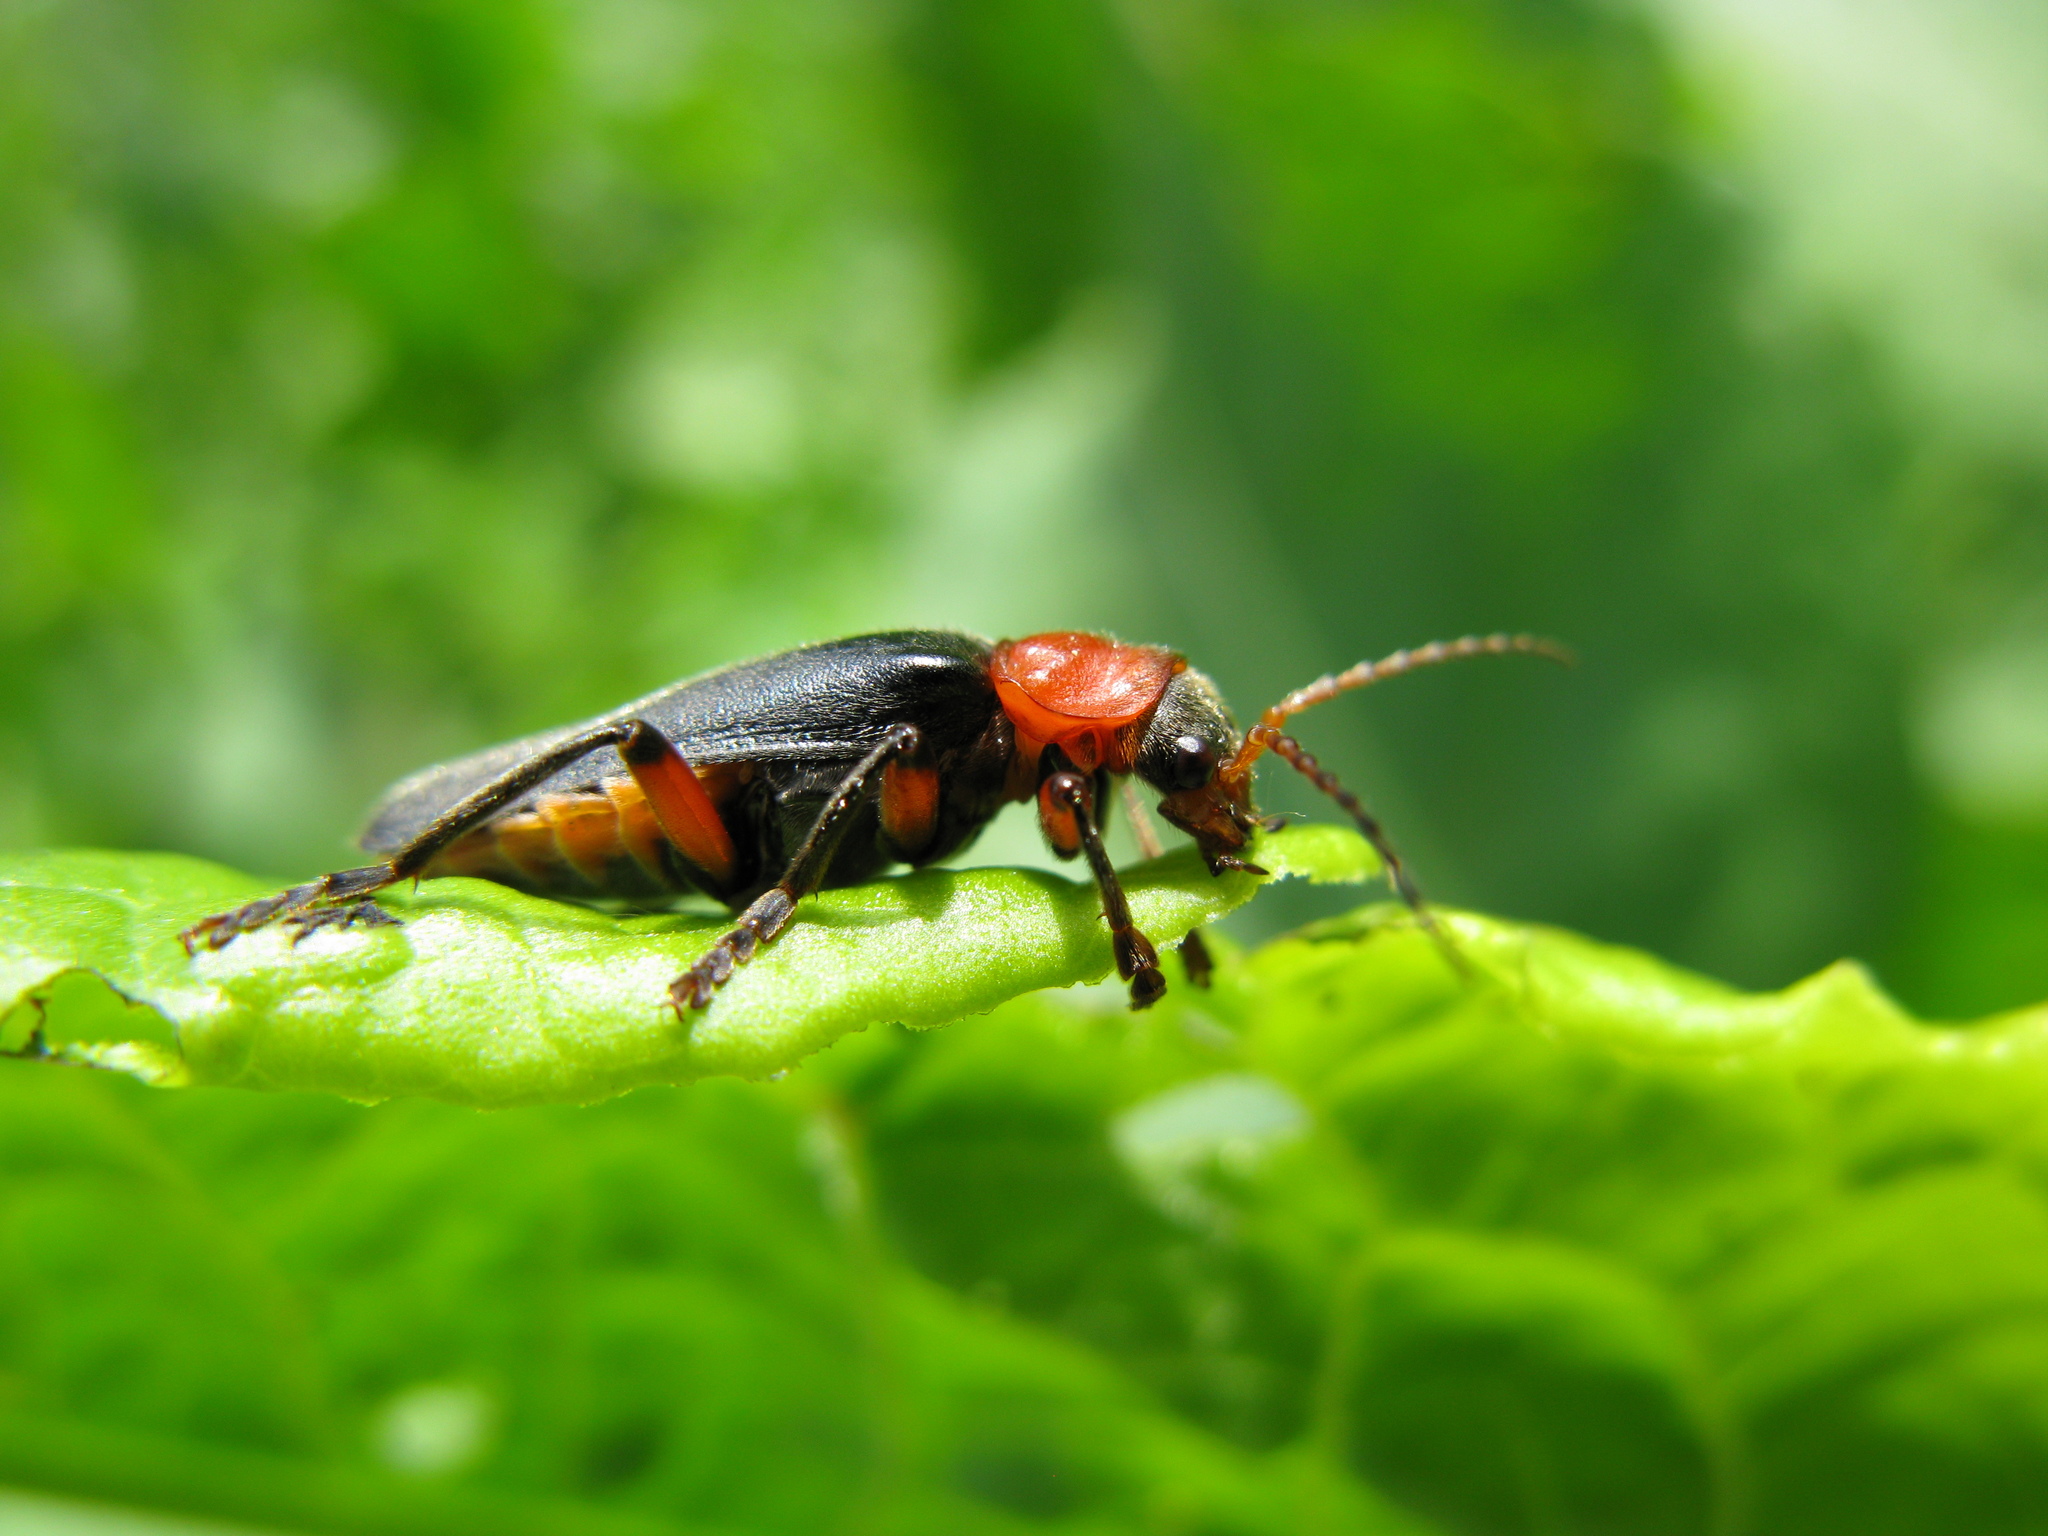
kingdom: Animalia
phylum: Arthropoda
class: Insecta
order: Coleoptera
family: Cantharidae
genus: Cantharis
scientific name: Cantharis rustica
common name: Soldier beetle
